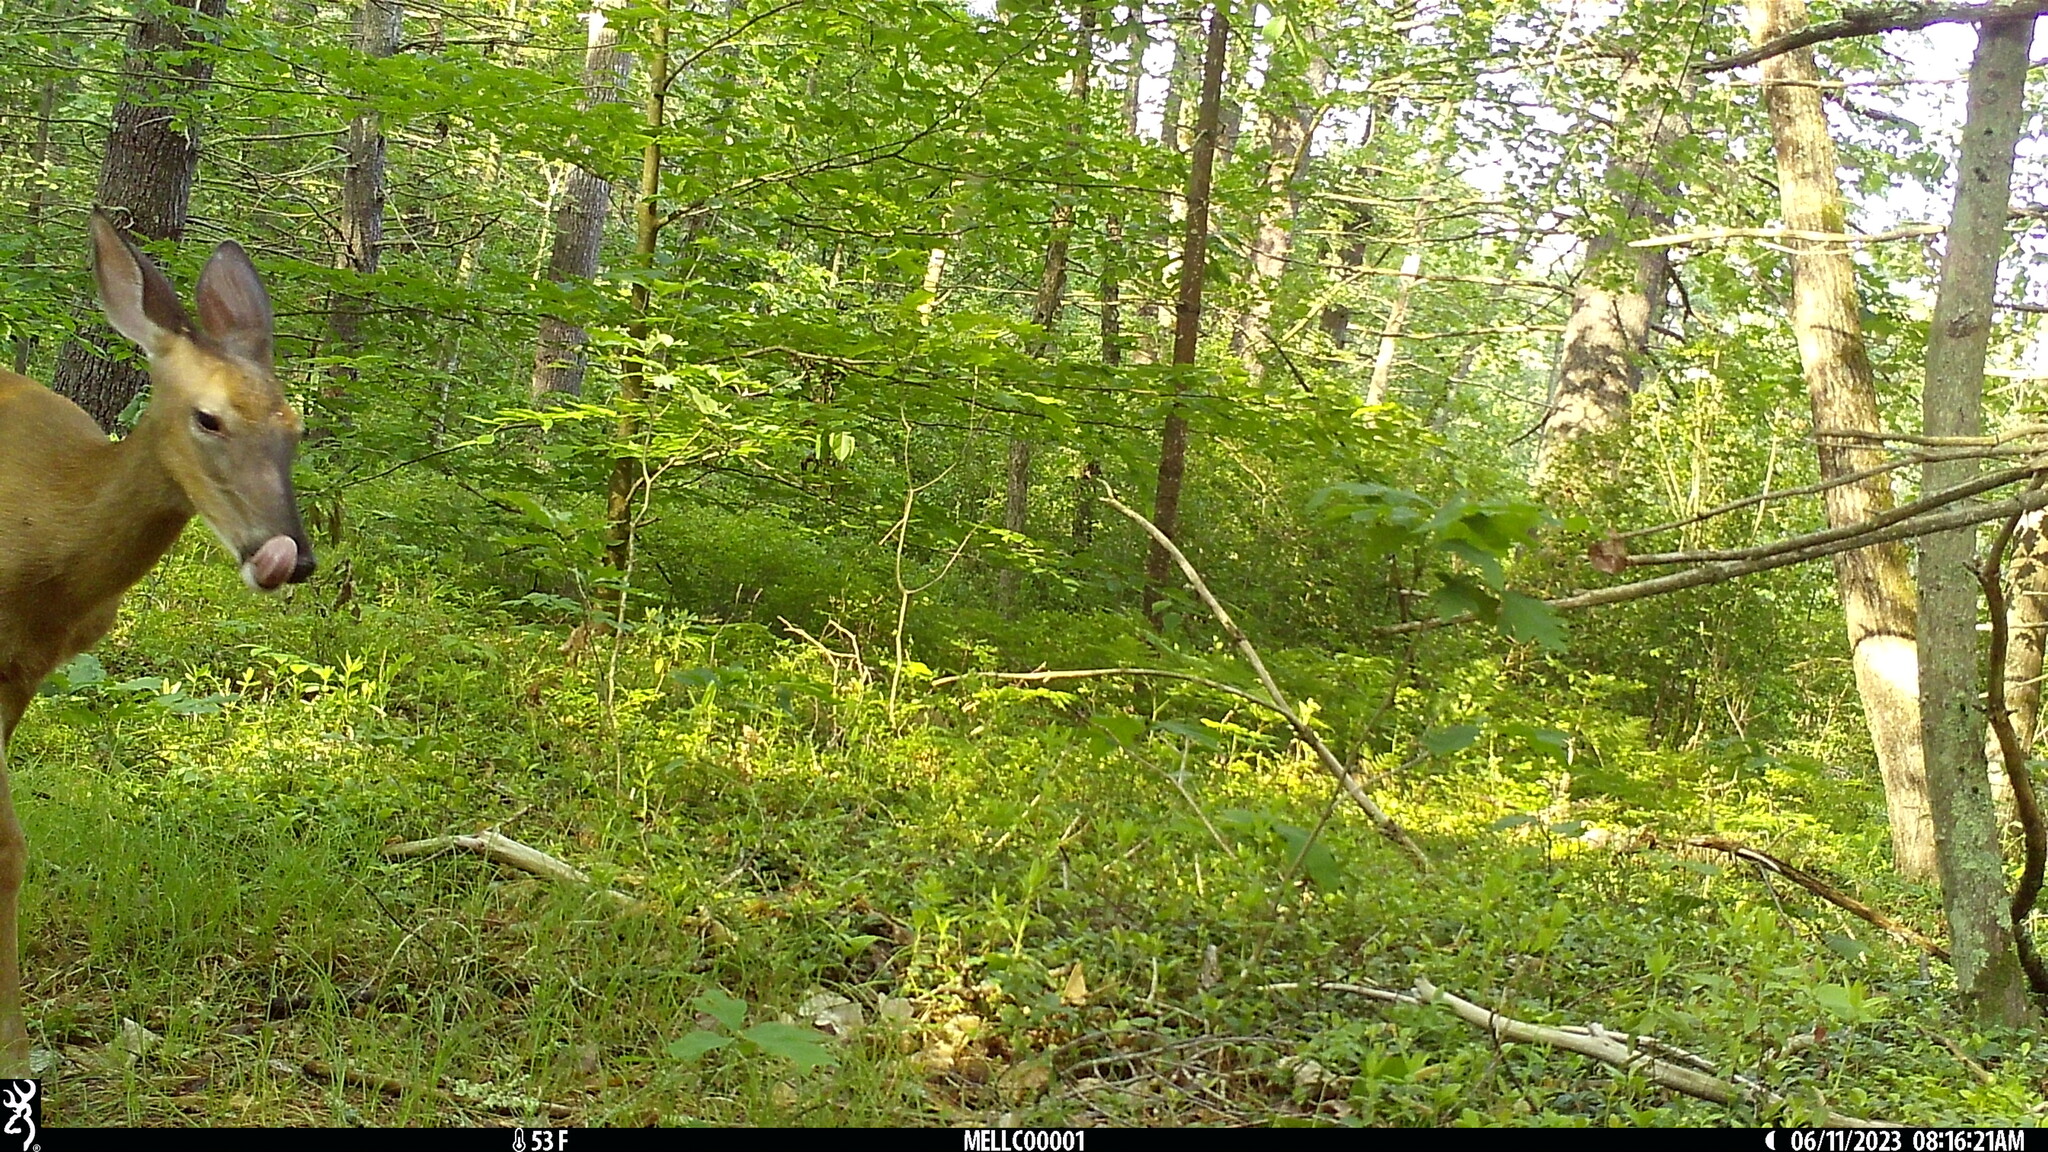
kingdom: Animalia
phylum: Chordata
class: Mammalia
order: Artiodactyla
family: Cervidae
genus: Odocoileus
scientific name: Odocoileus virginianus
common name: White-tailed deer
